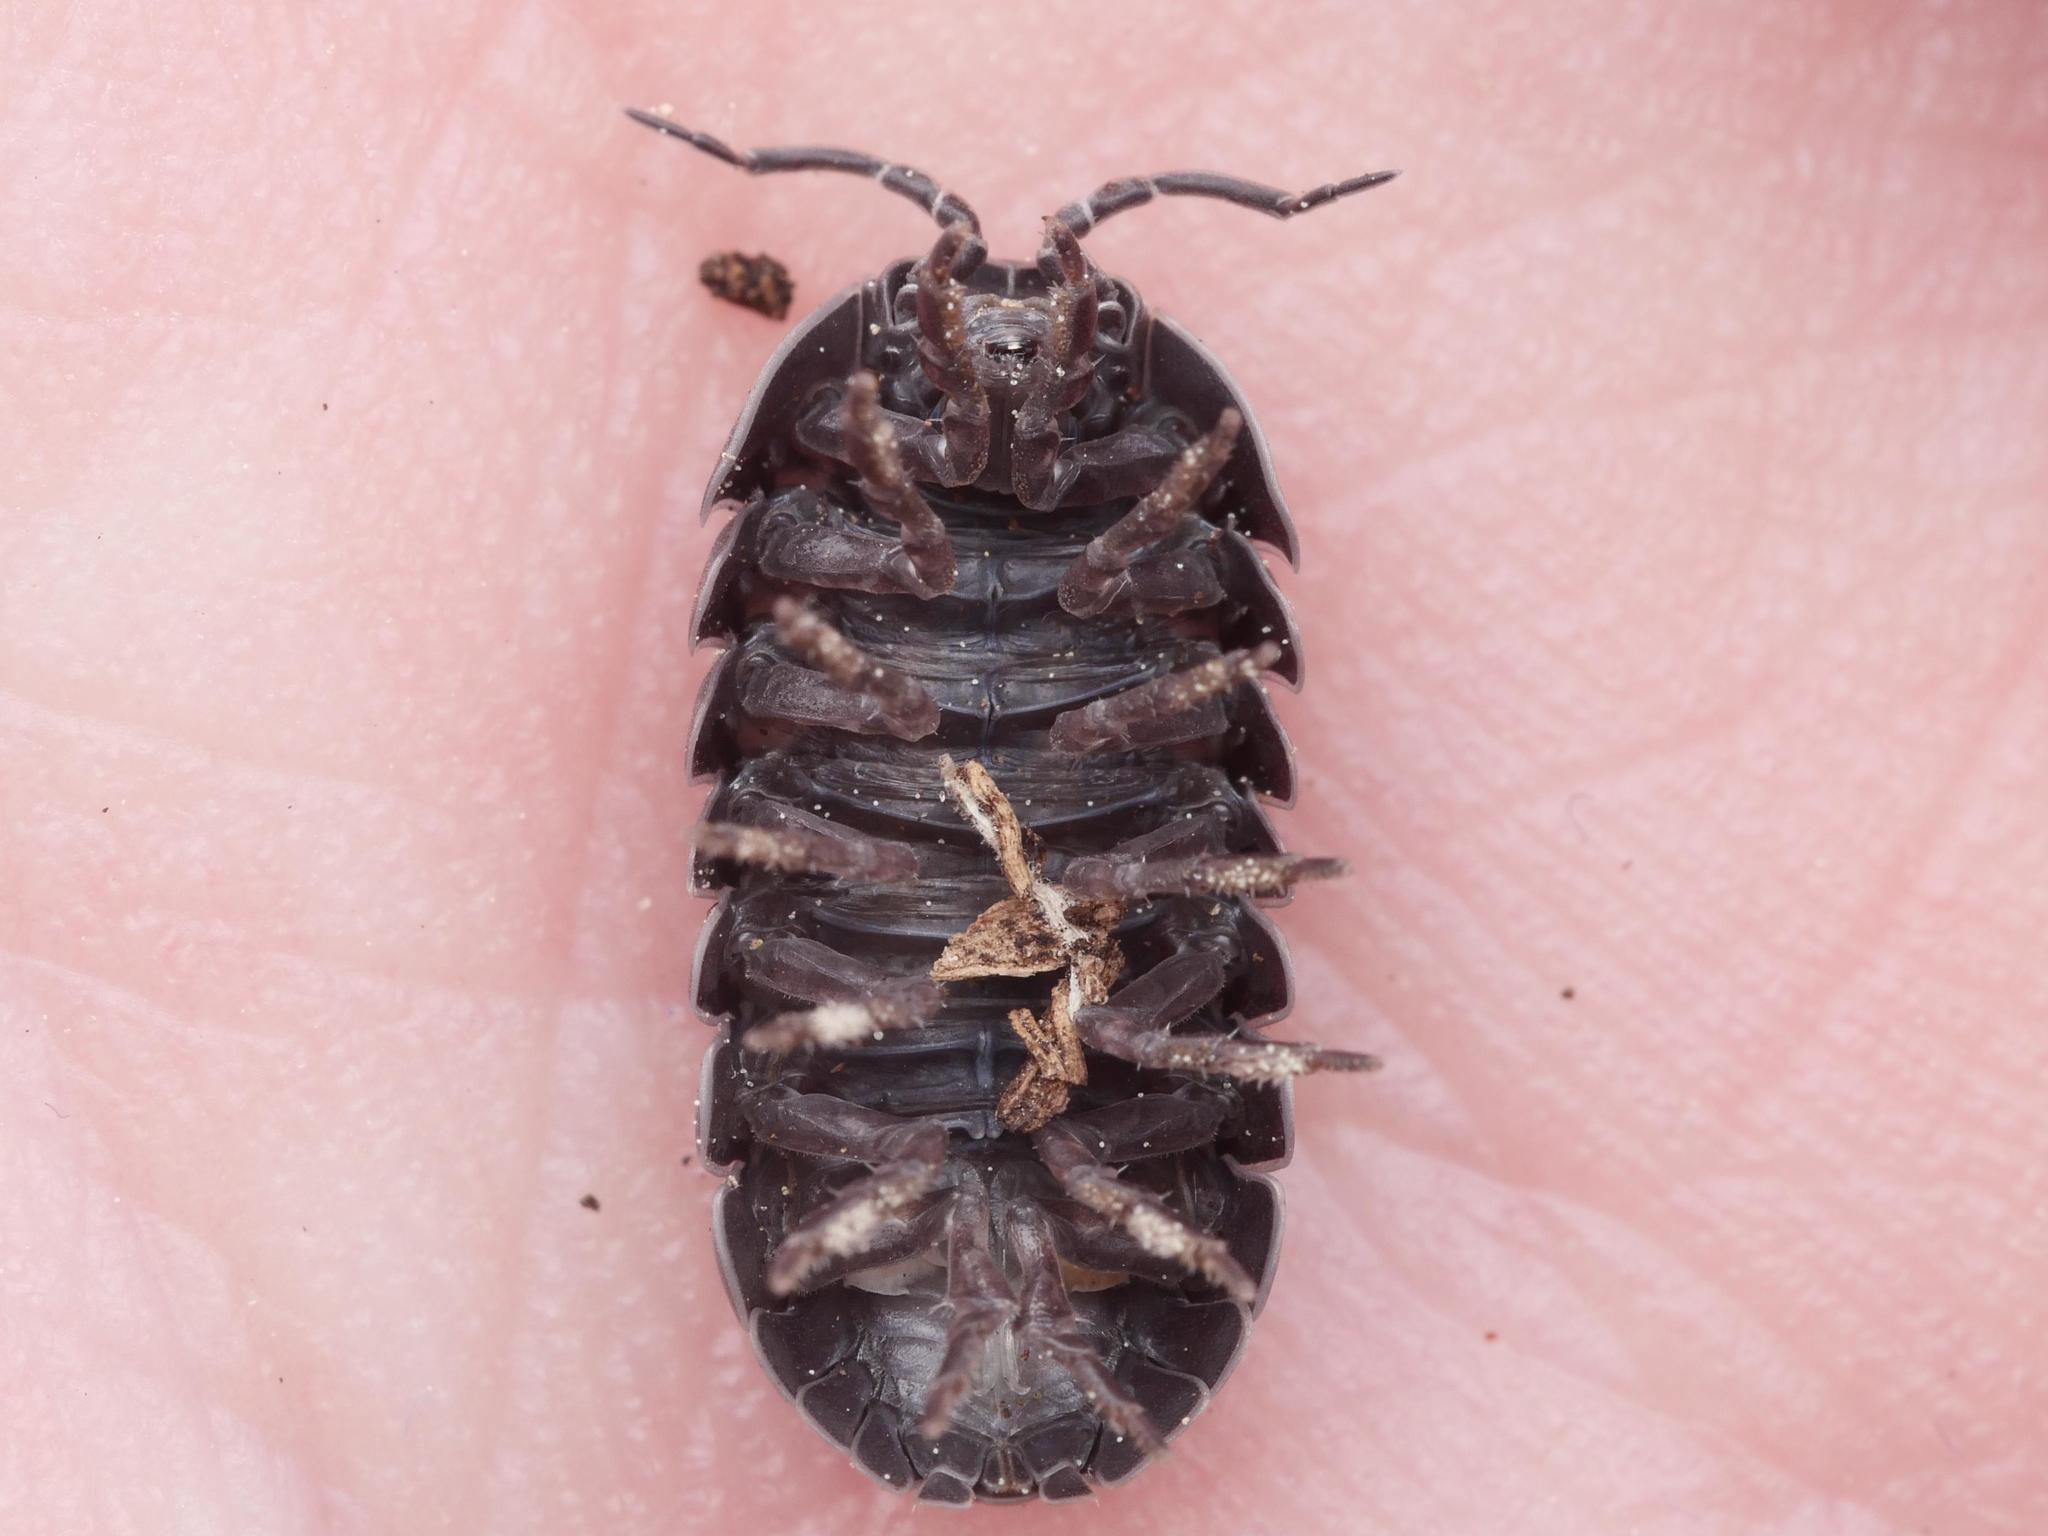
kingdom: Animalia
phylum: Arthropoda
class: Malacostraca
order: Isopoda
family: Armadillidiidae
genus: Armadillidium
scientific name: Armadillidium vulgare
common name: Common pill woodlouse
